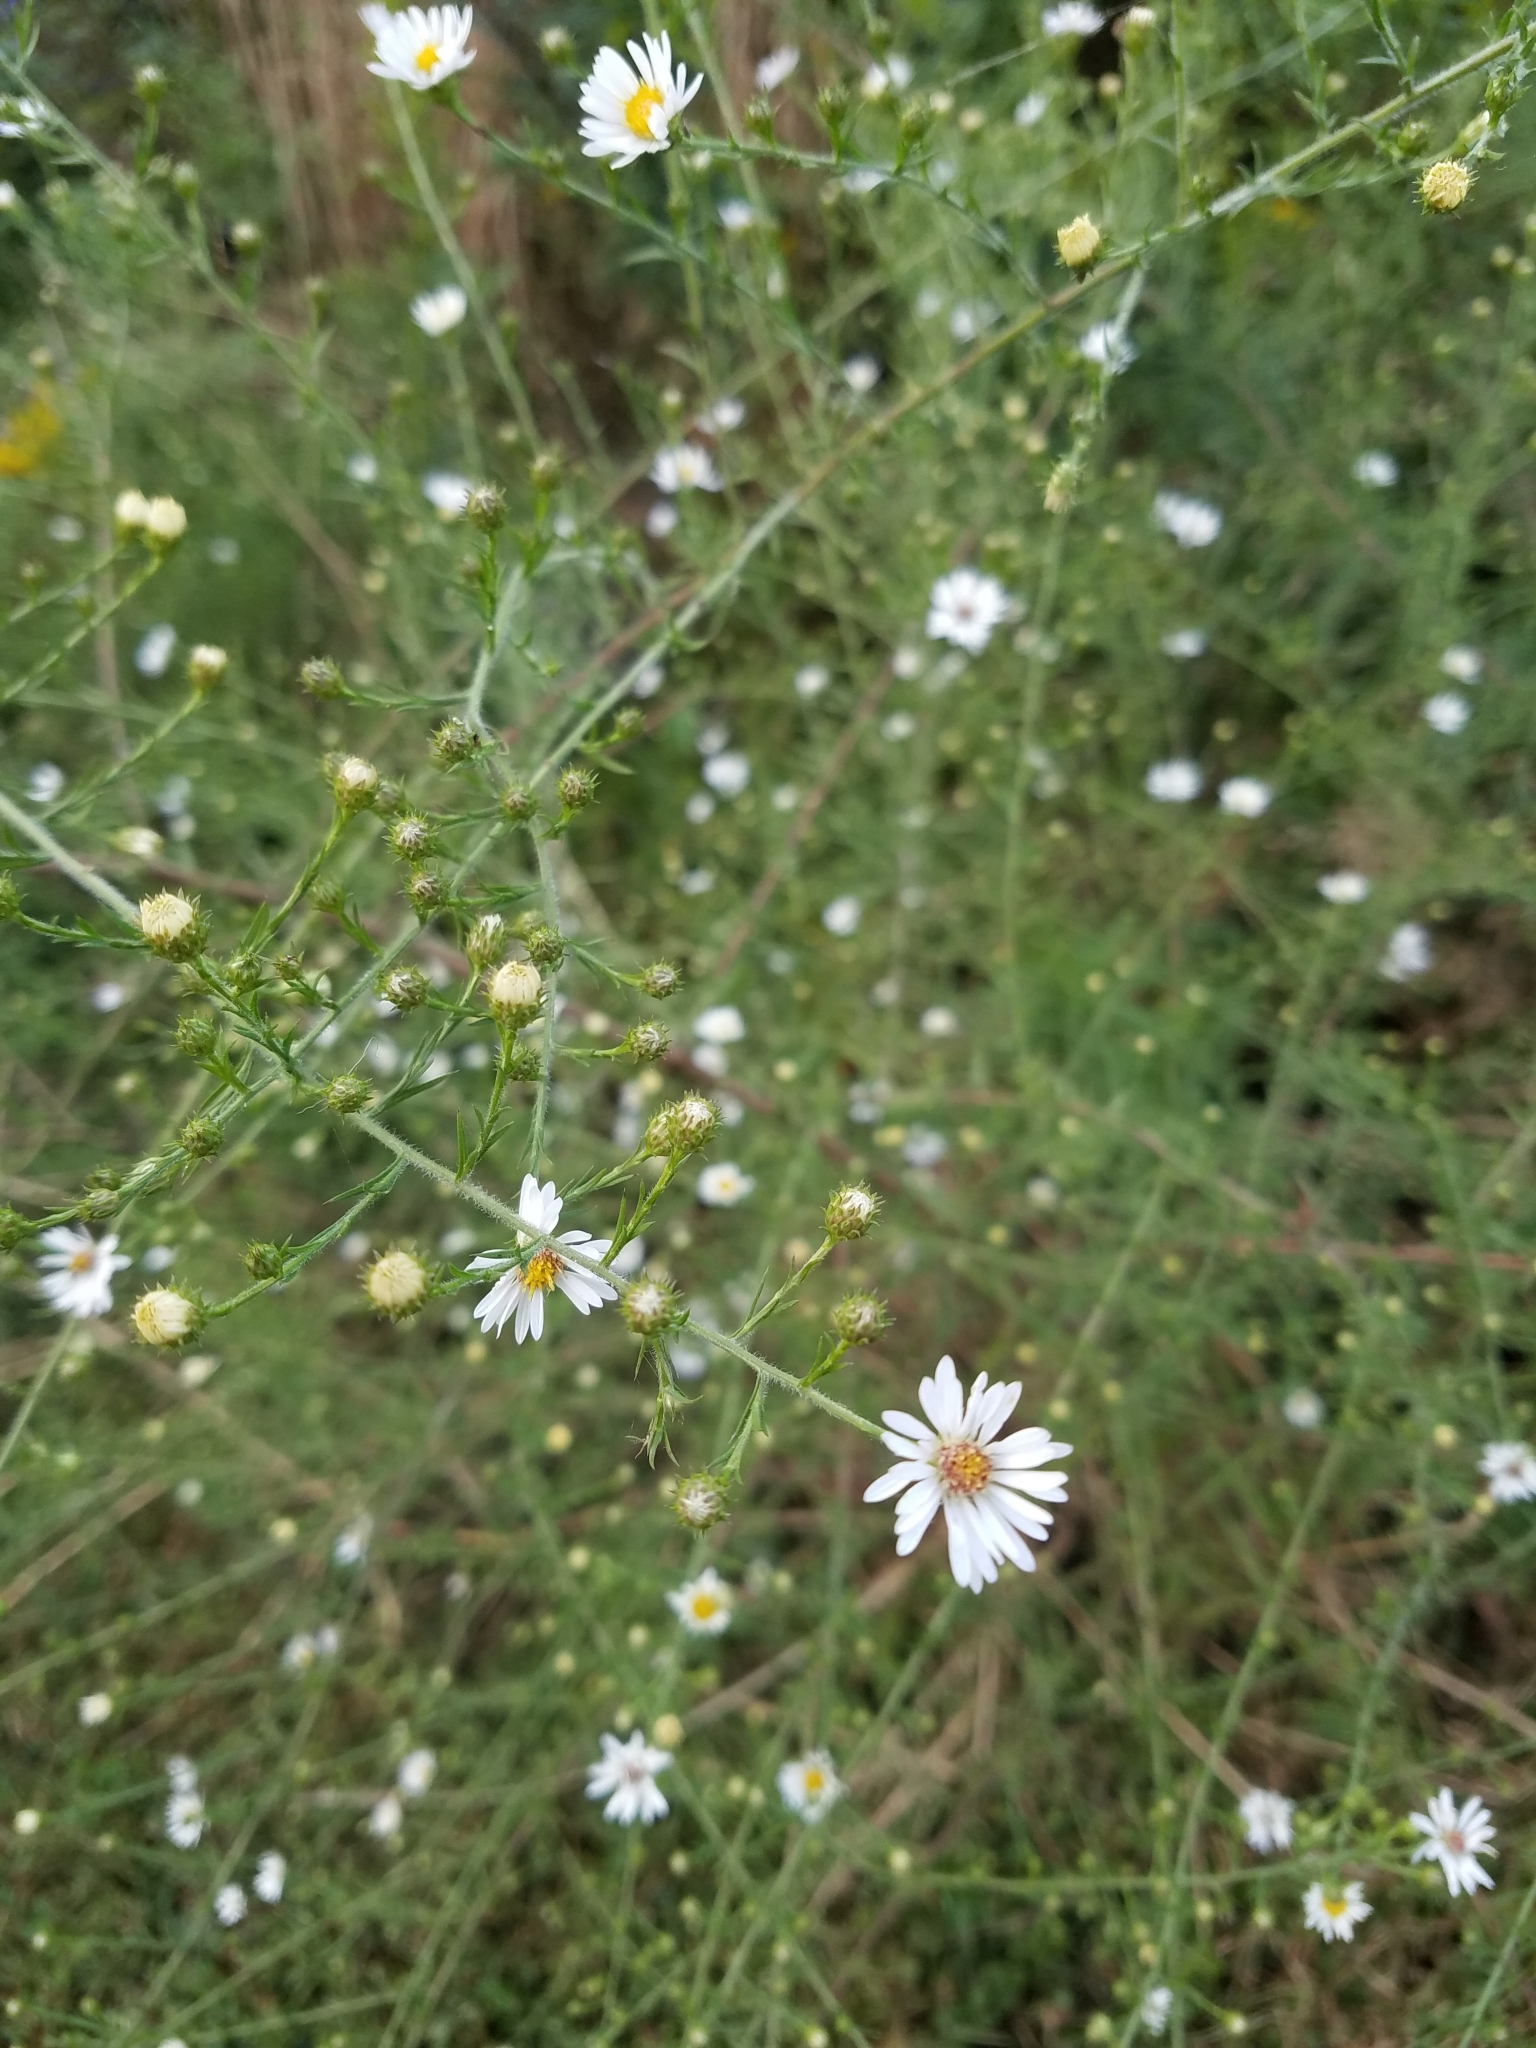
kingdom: Plantae
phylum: Tracheophyta
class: Magnoliopsida
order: Asterales
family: Asteraceae
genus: Symphyotrichum
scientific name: Symphyotrichum pilosum
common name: Awl aster
